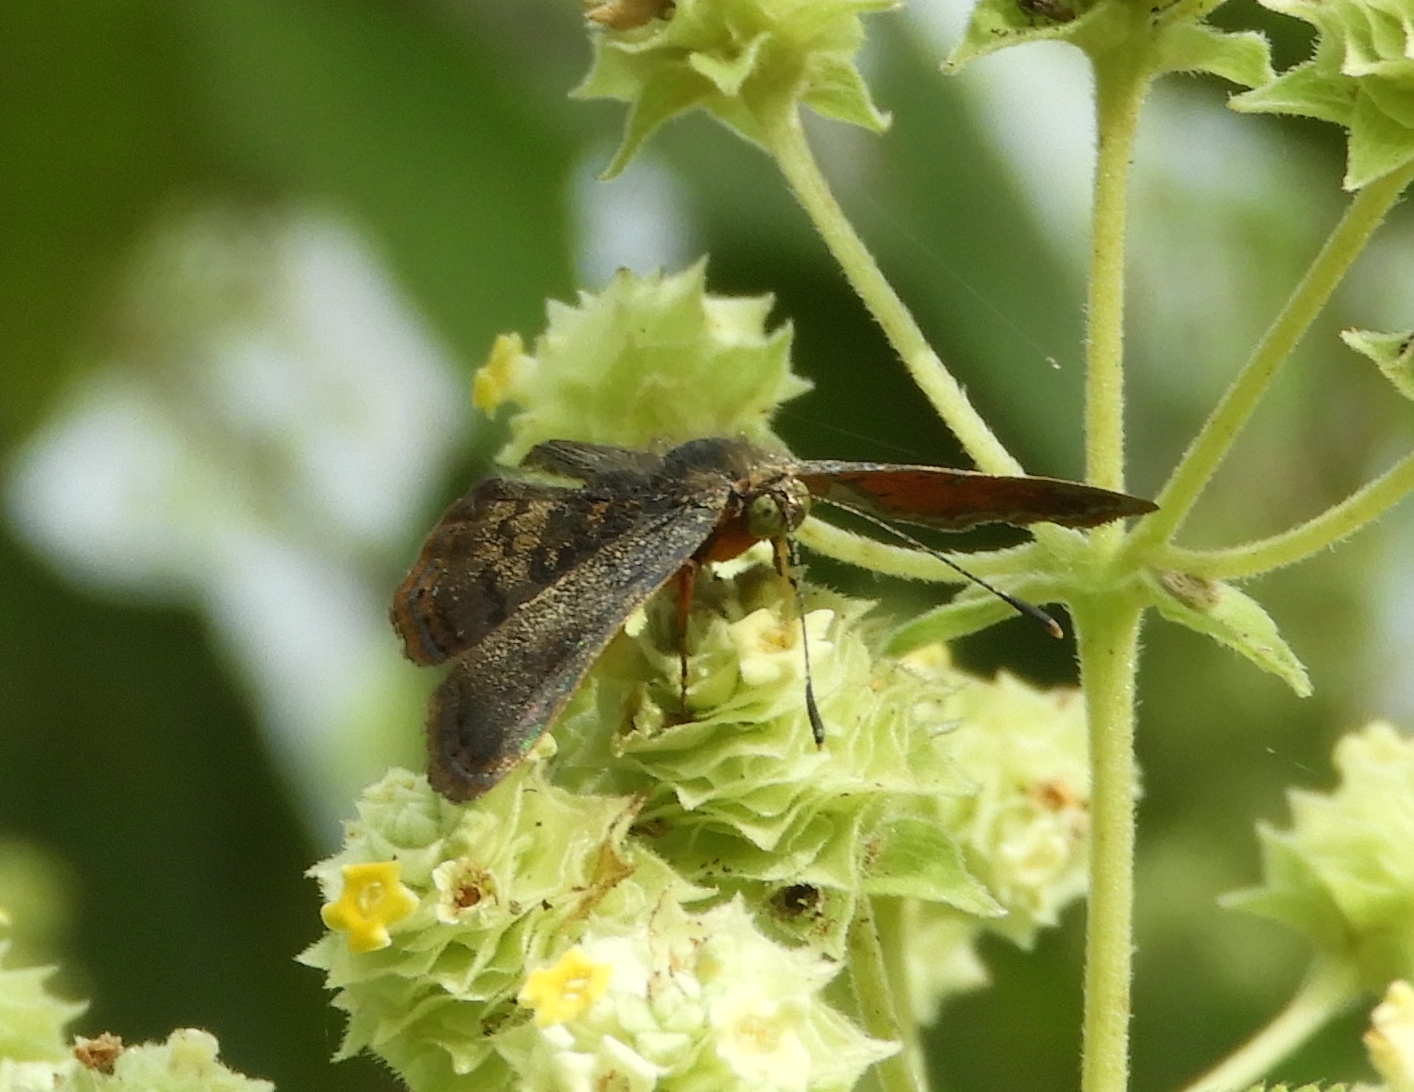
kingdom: Animalia
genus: Caria
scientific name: Caria ino
